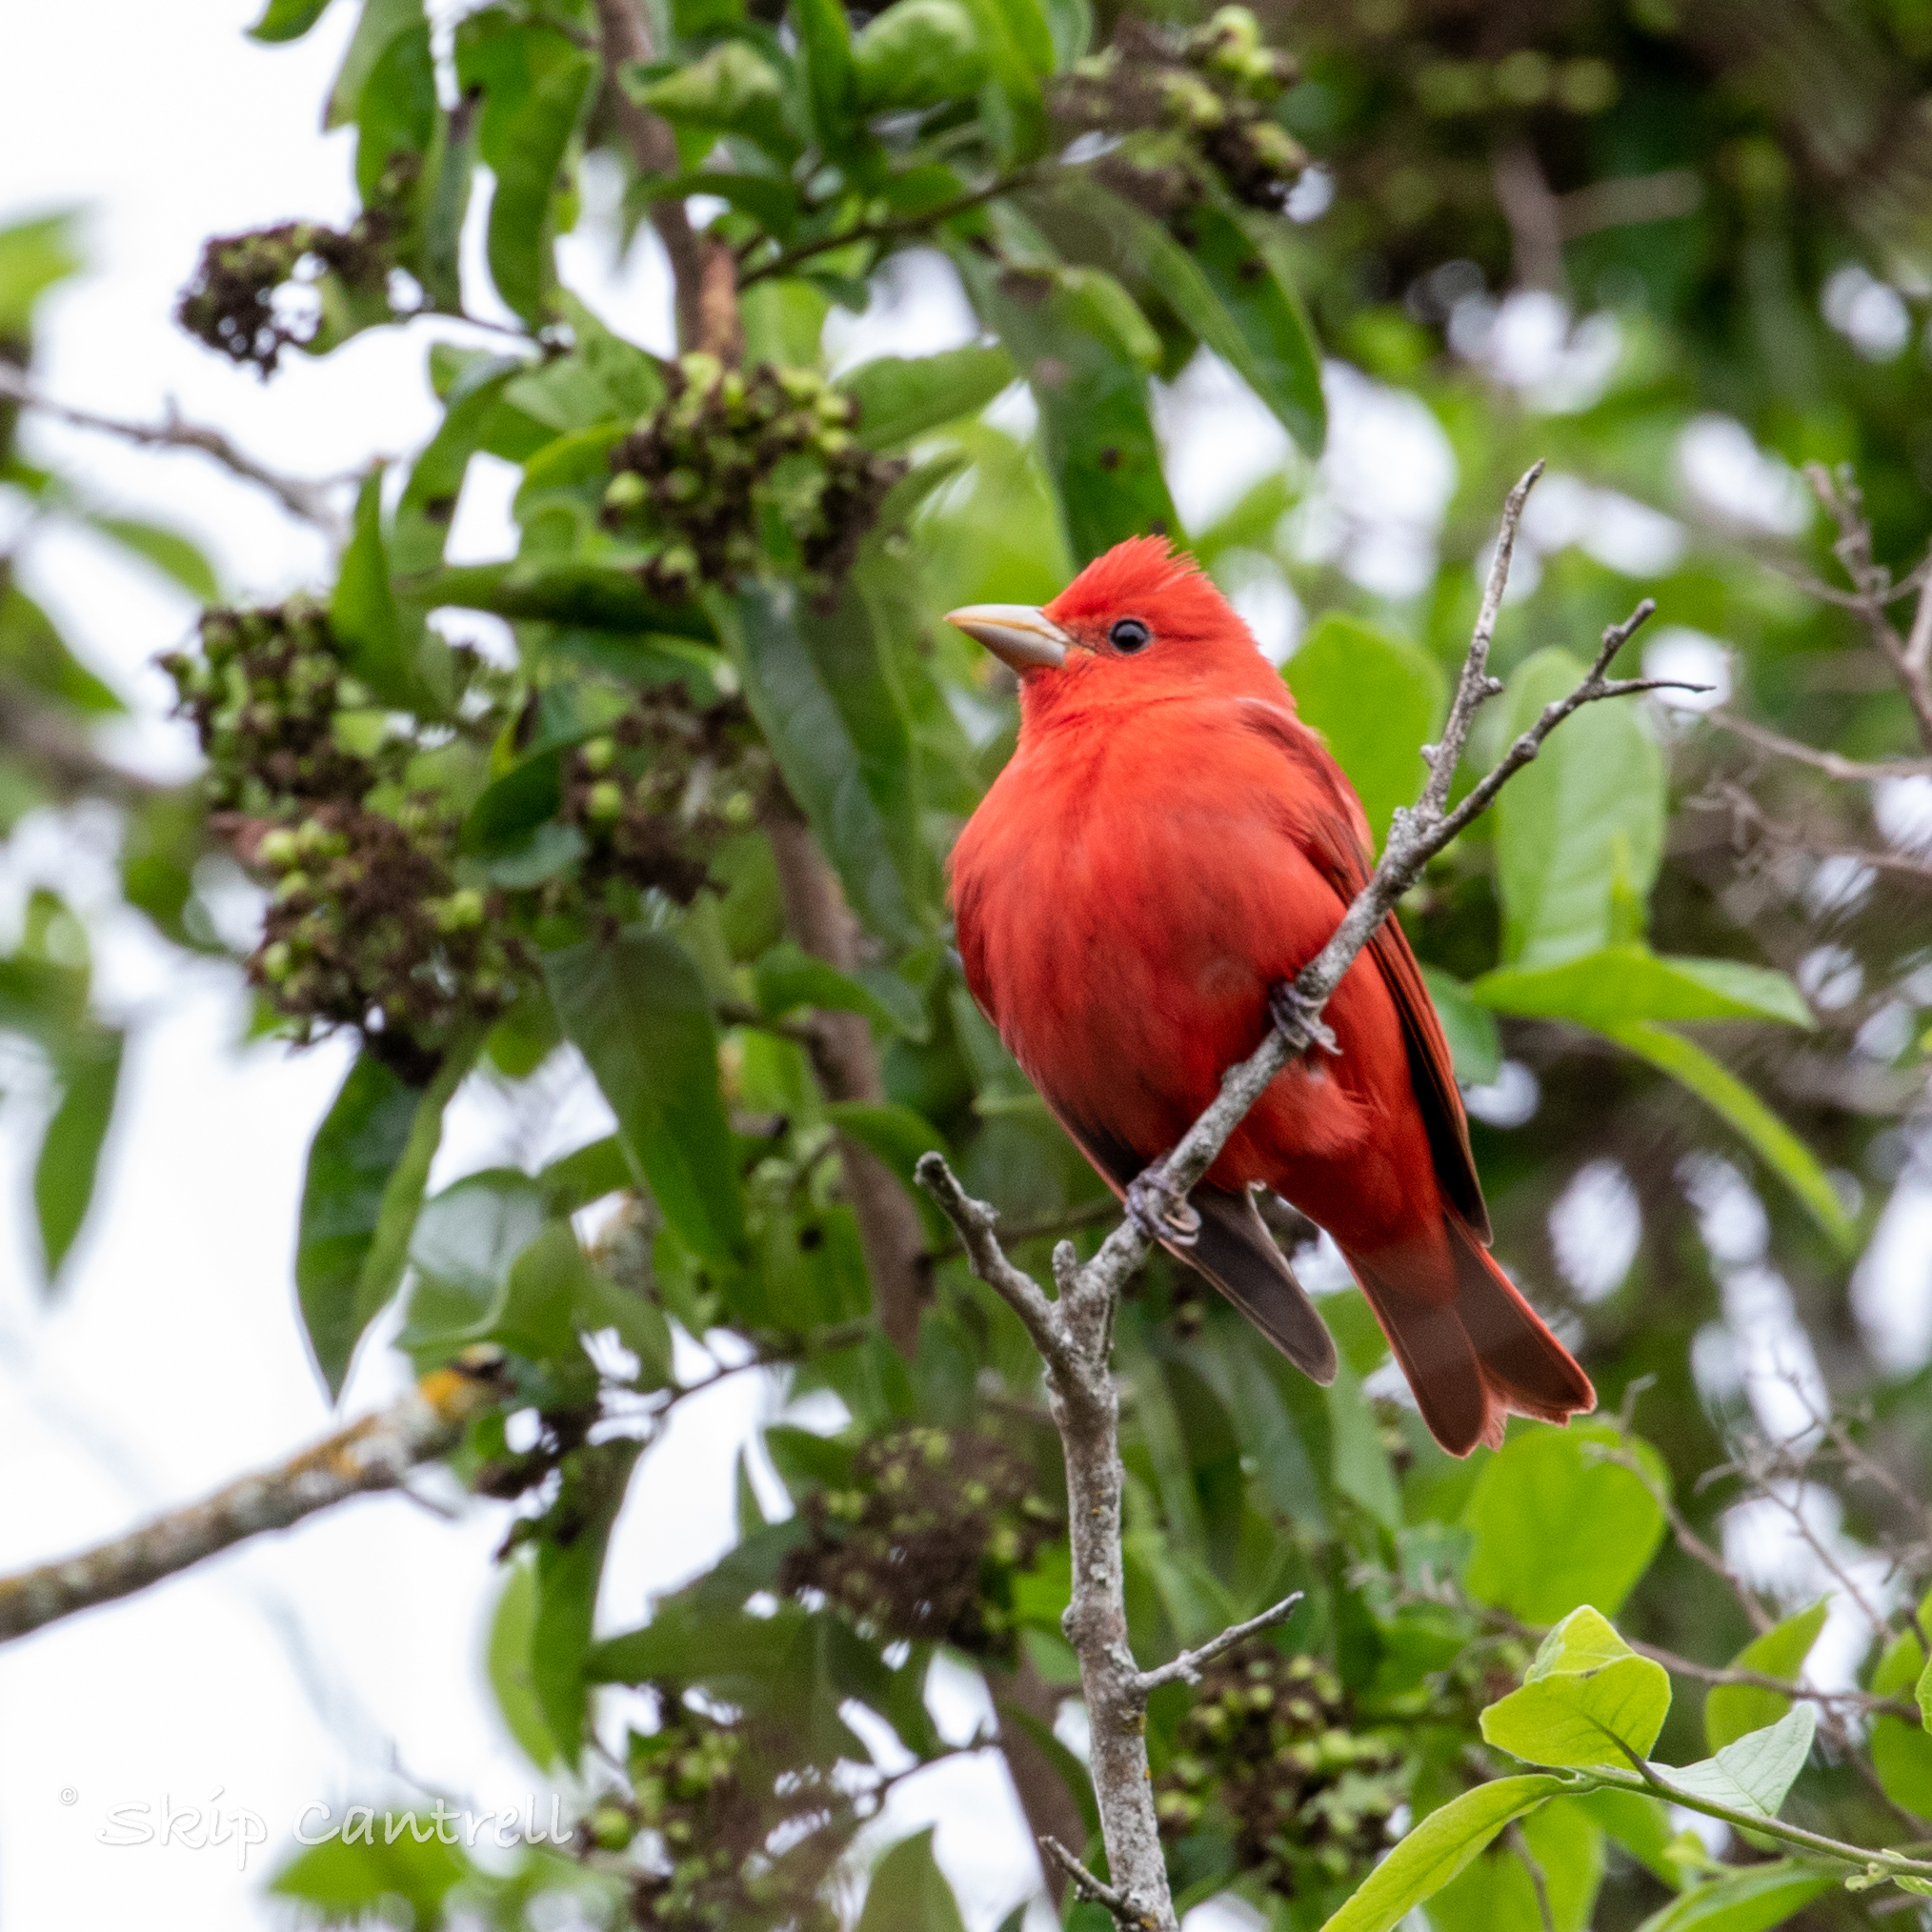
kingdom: Animalia
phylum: Chordata
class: Aves
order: Passeriformes
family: Cardinalidae
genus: Piranga
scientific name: Piranga rubra
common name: Summer tanager
